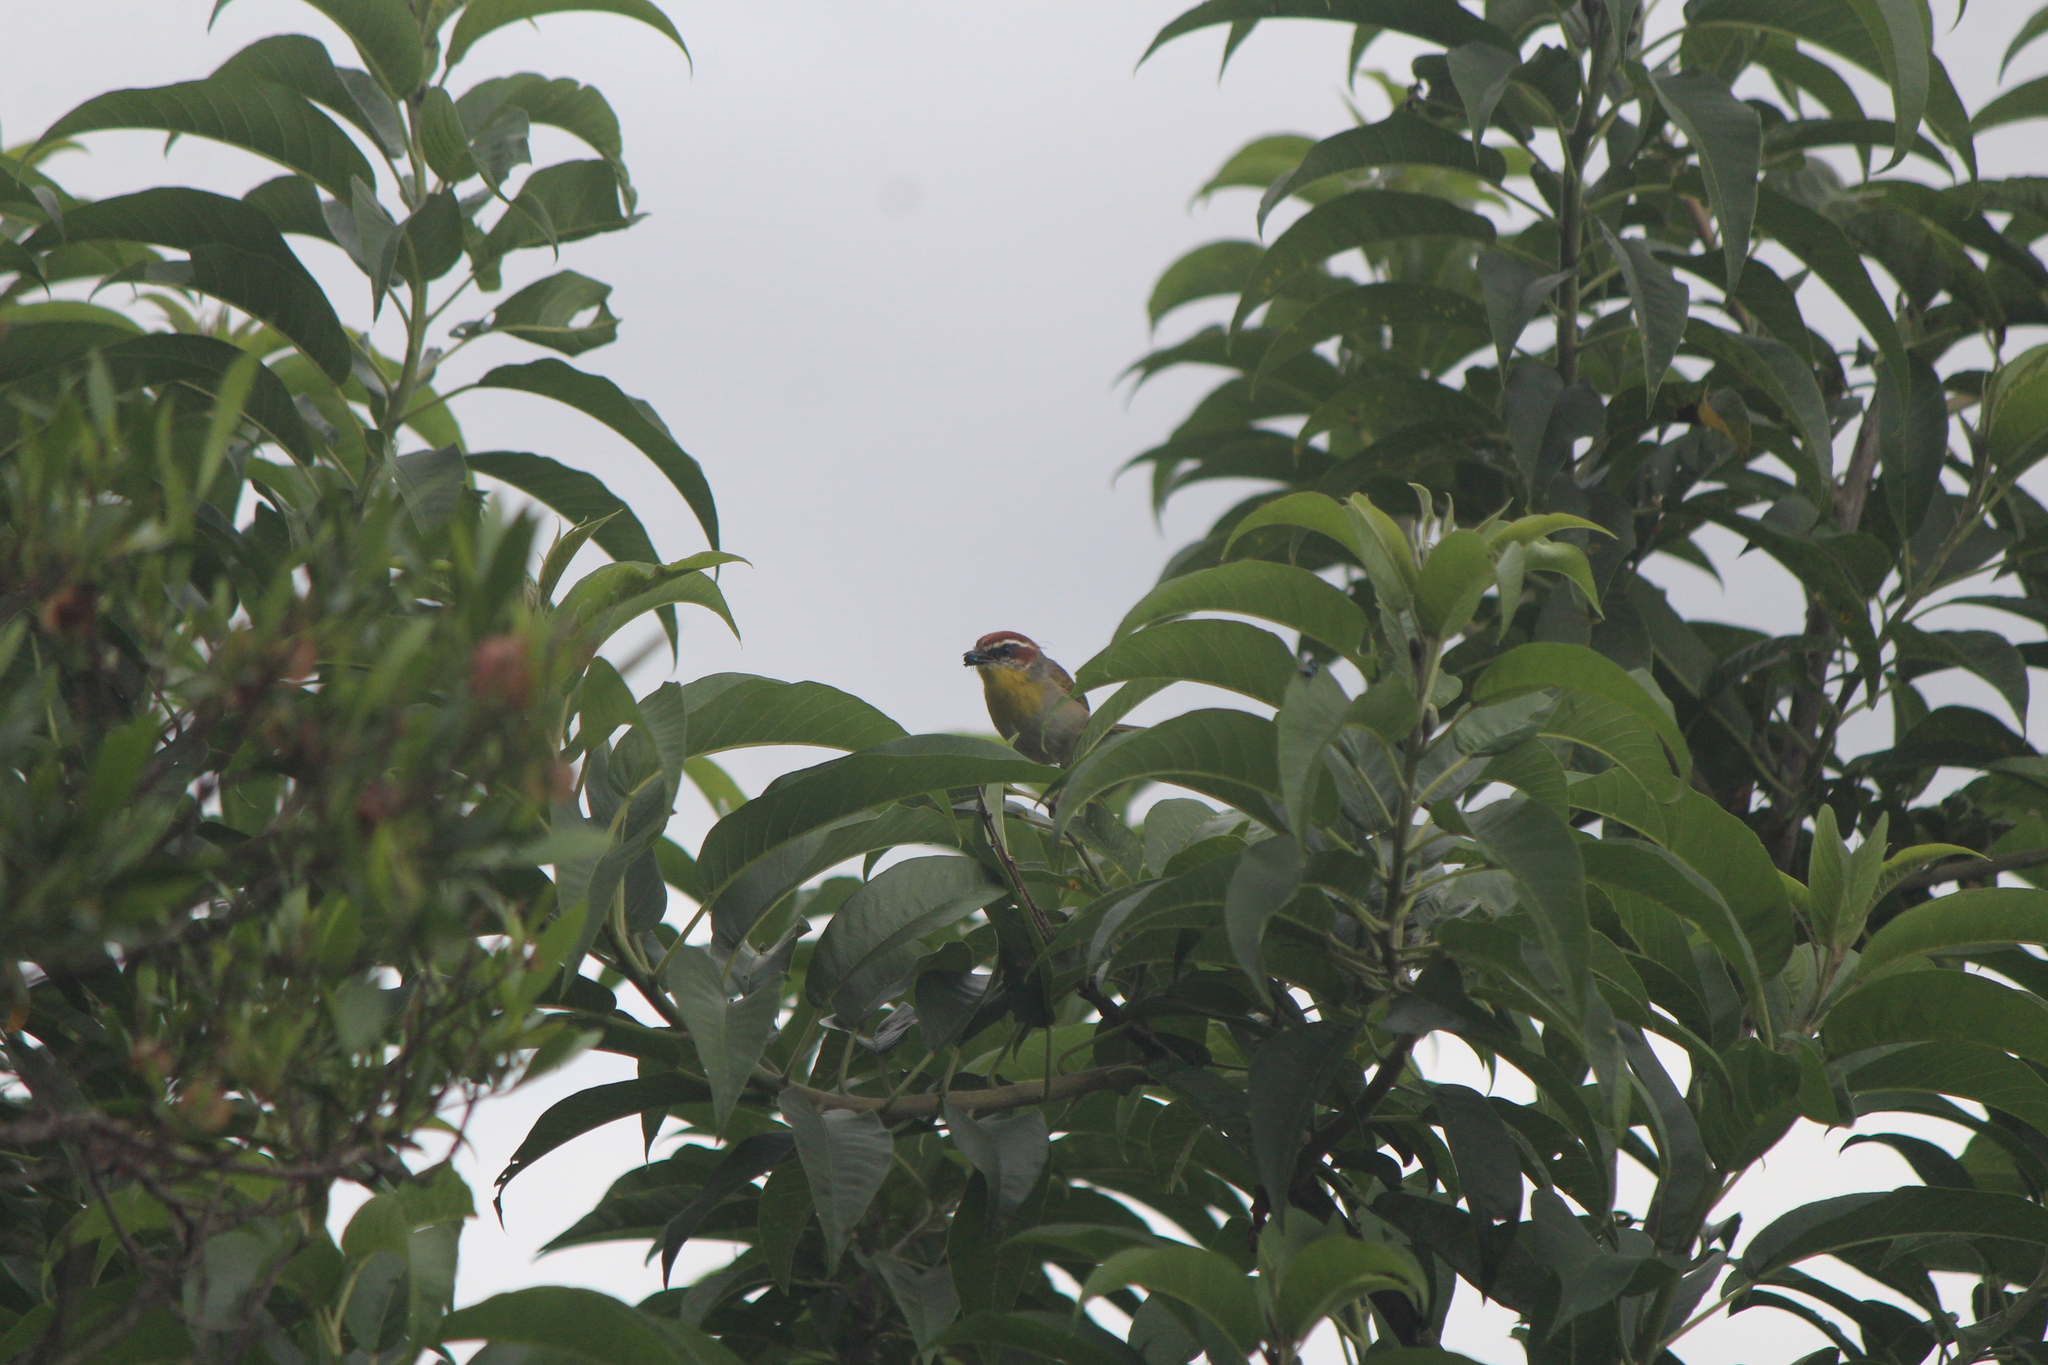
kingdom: Animalia
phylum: Chordata
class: Aves
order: Passeriformes
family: Parulidae
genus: Basileuterus
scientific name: Basileuterus rufifrons
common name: Rufous-capped warbler
